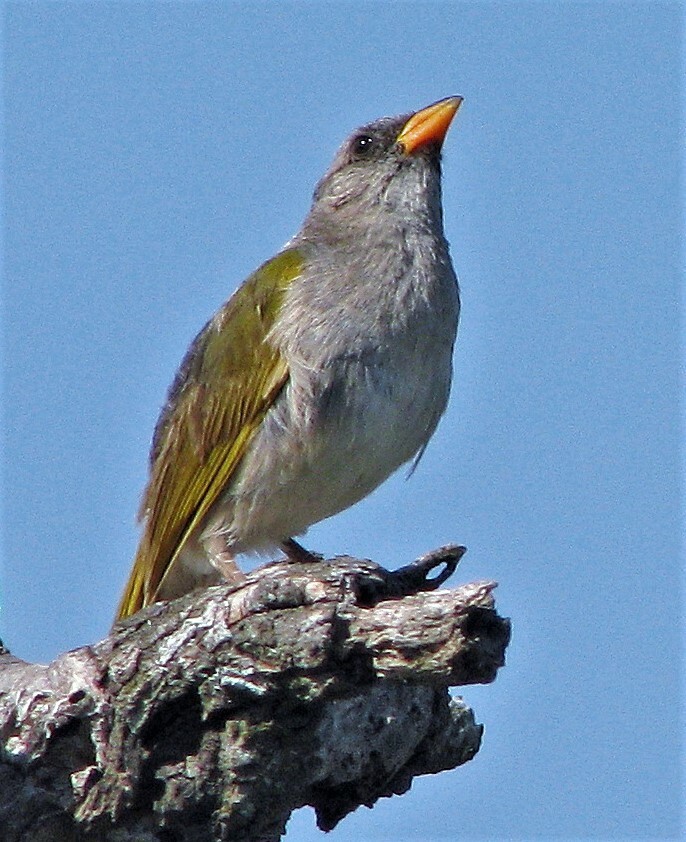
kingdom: Animalia
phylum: Chordata
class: Aves
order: Passeriformes
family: Thraupidae
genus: Embernagra
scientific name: Embernagra platensis
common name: Pampa finch
